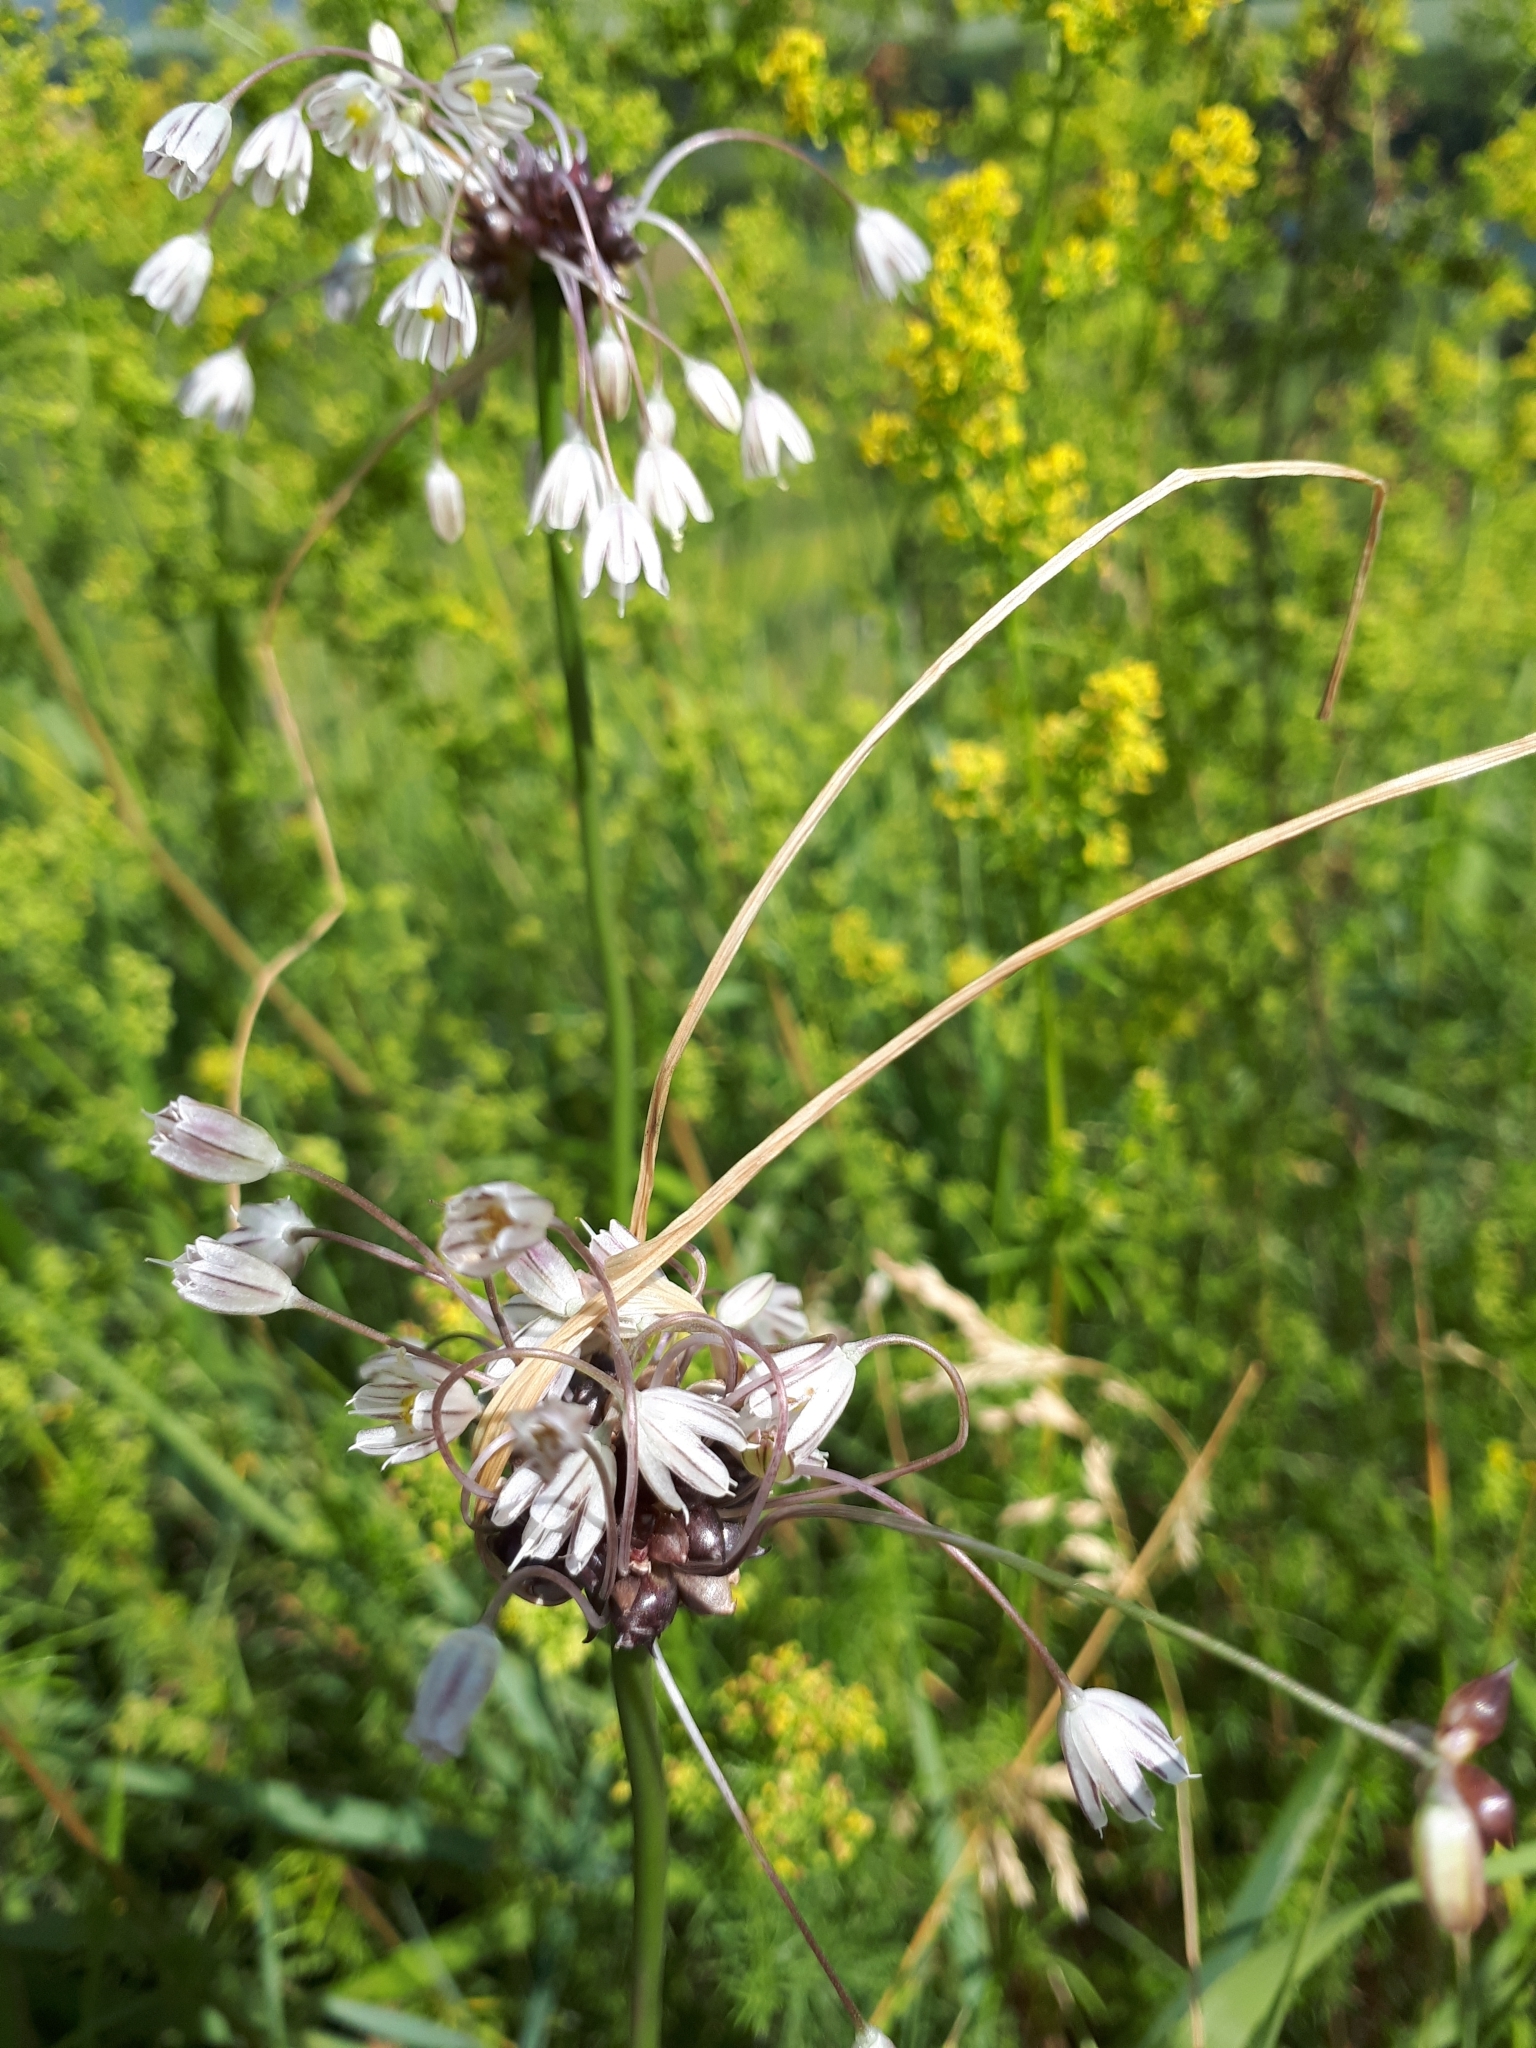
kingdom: Plantae
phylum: Tracheophyta
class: Liliopsida
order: Asparagales
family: Amaryllidaceae
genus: Allium
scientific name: Allium oleraceum
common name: Field garlic
